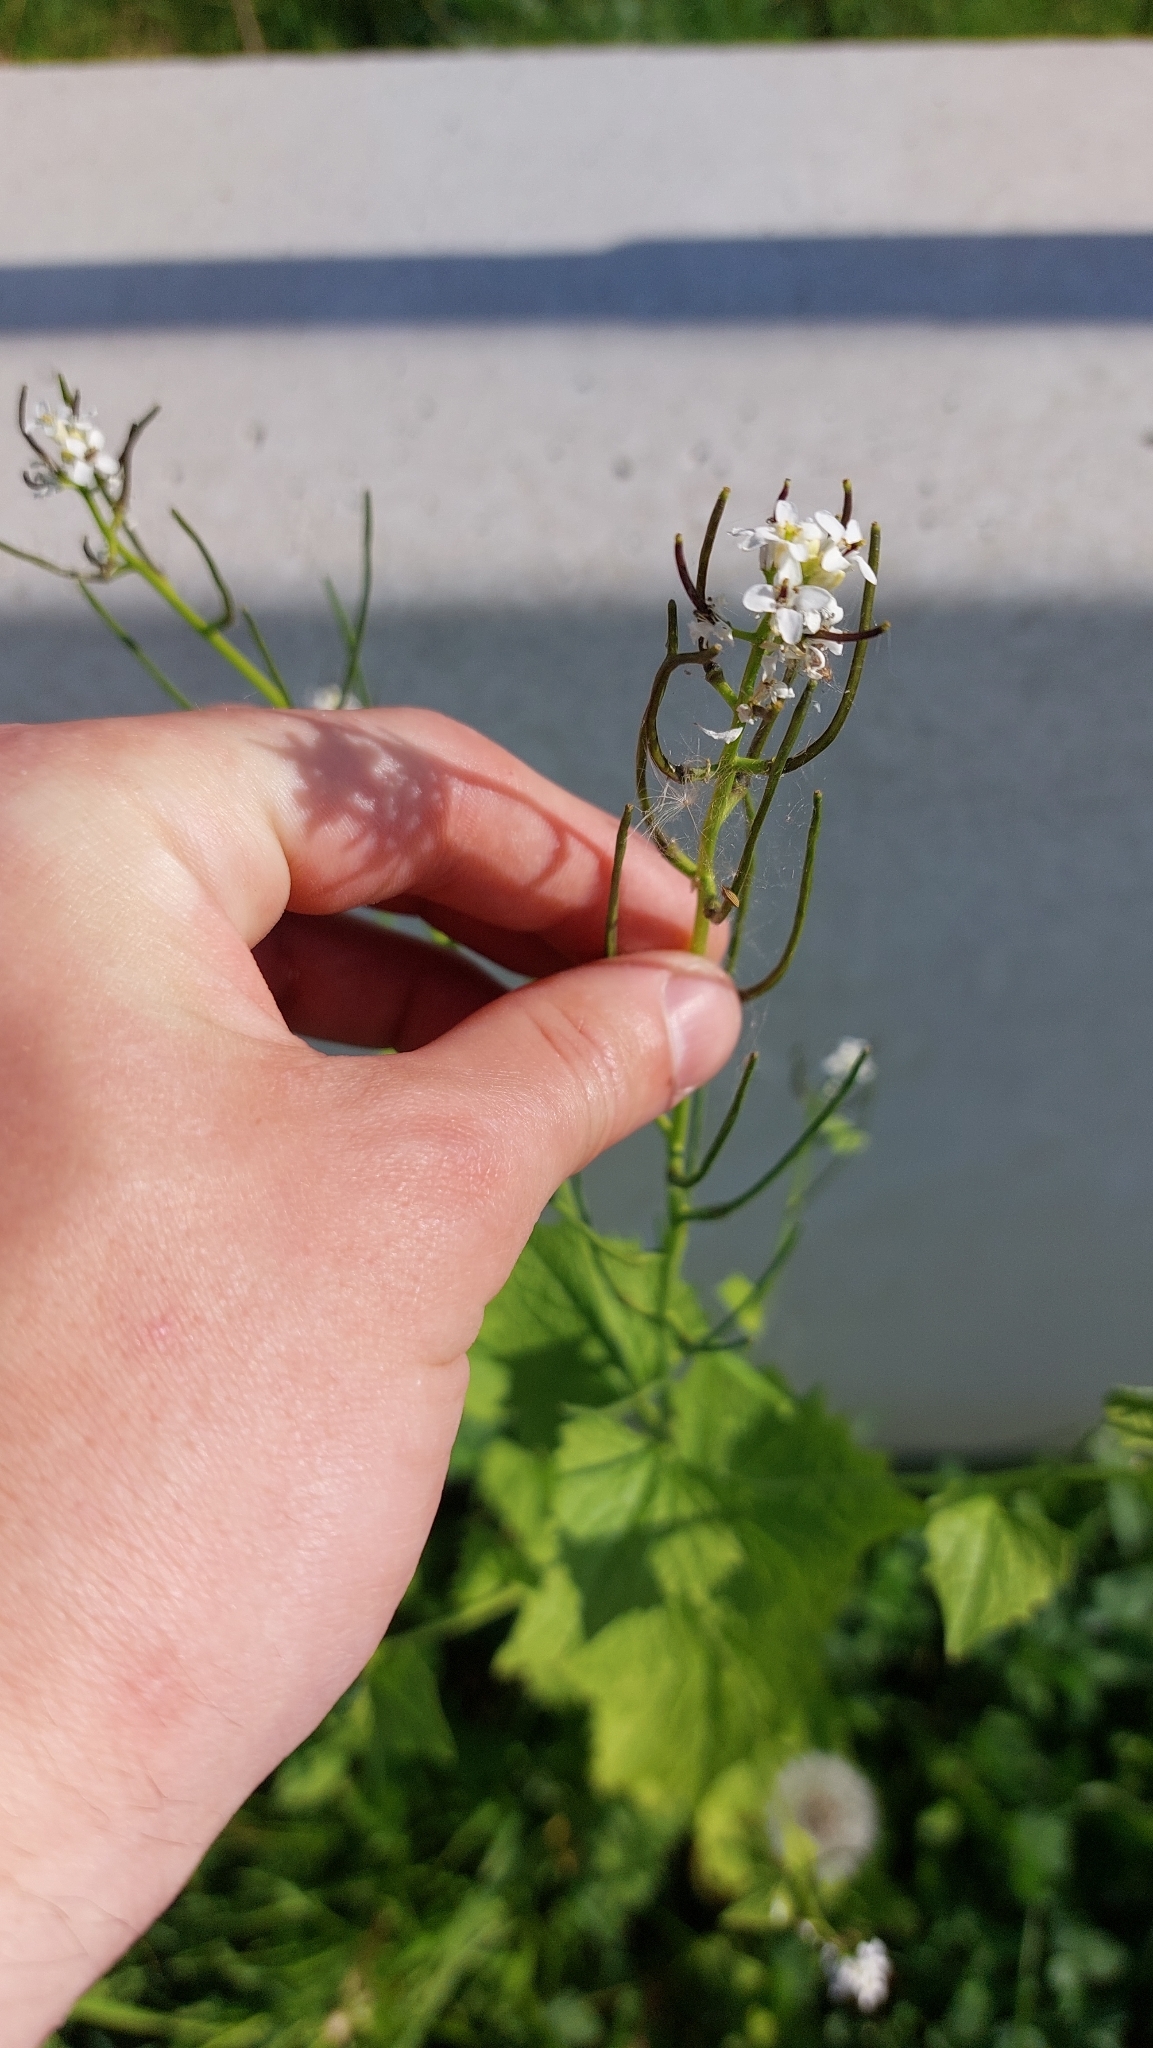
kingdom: Plantae
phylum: Tracheophyta
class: Magnoliopsida
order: Brassicales
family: Brassicaceae
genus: Alliaria
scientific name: Alliaria petiolata
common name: Garlic mustard
